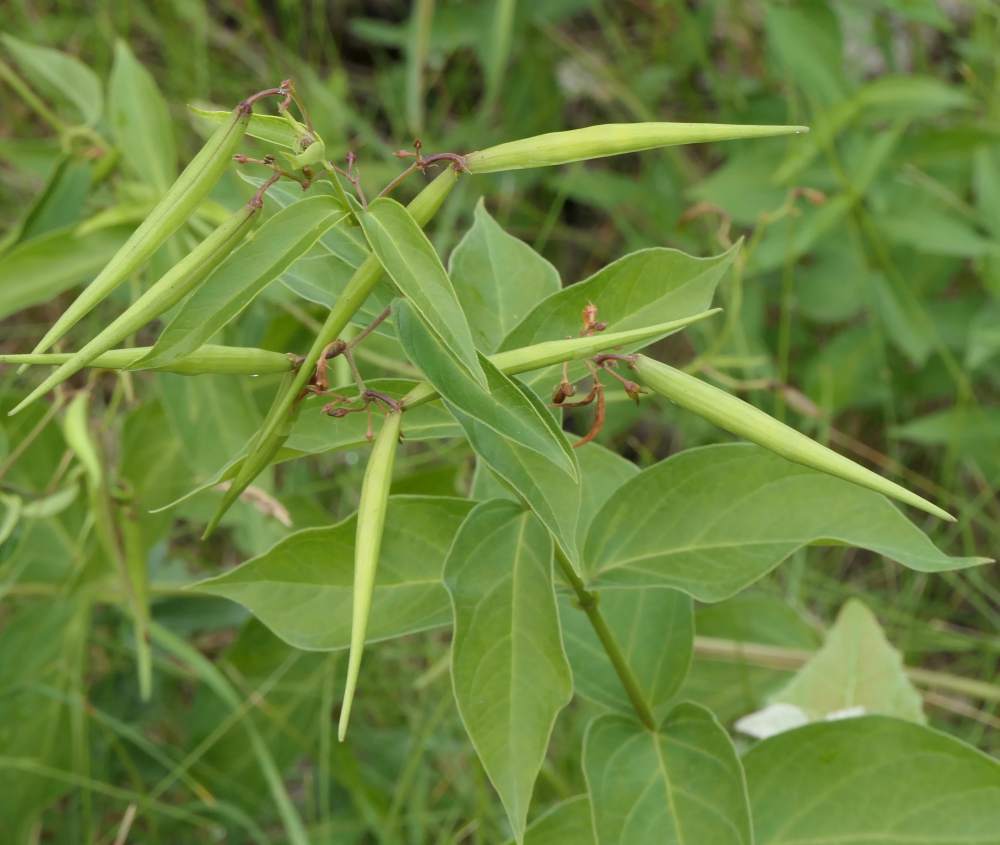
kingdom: Plantae
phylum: Tracheophyta
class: Magnoliopsida
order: Gentianales
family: Apocynaceae
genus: Vincetoxicum
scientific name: Vincetoxicum rossicum
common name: Dog-strangling vine
